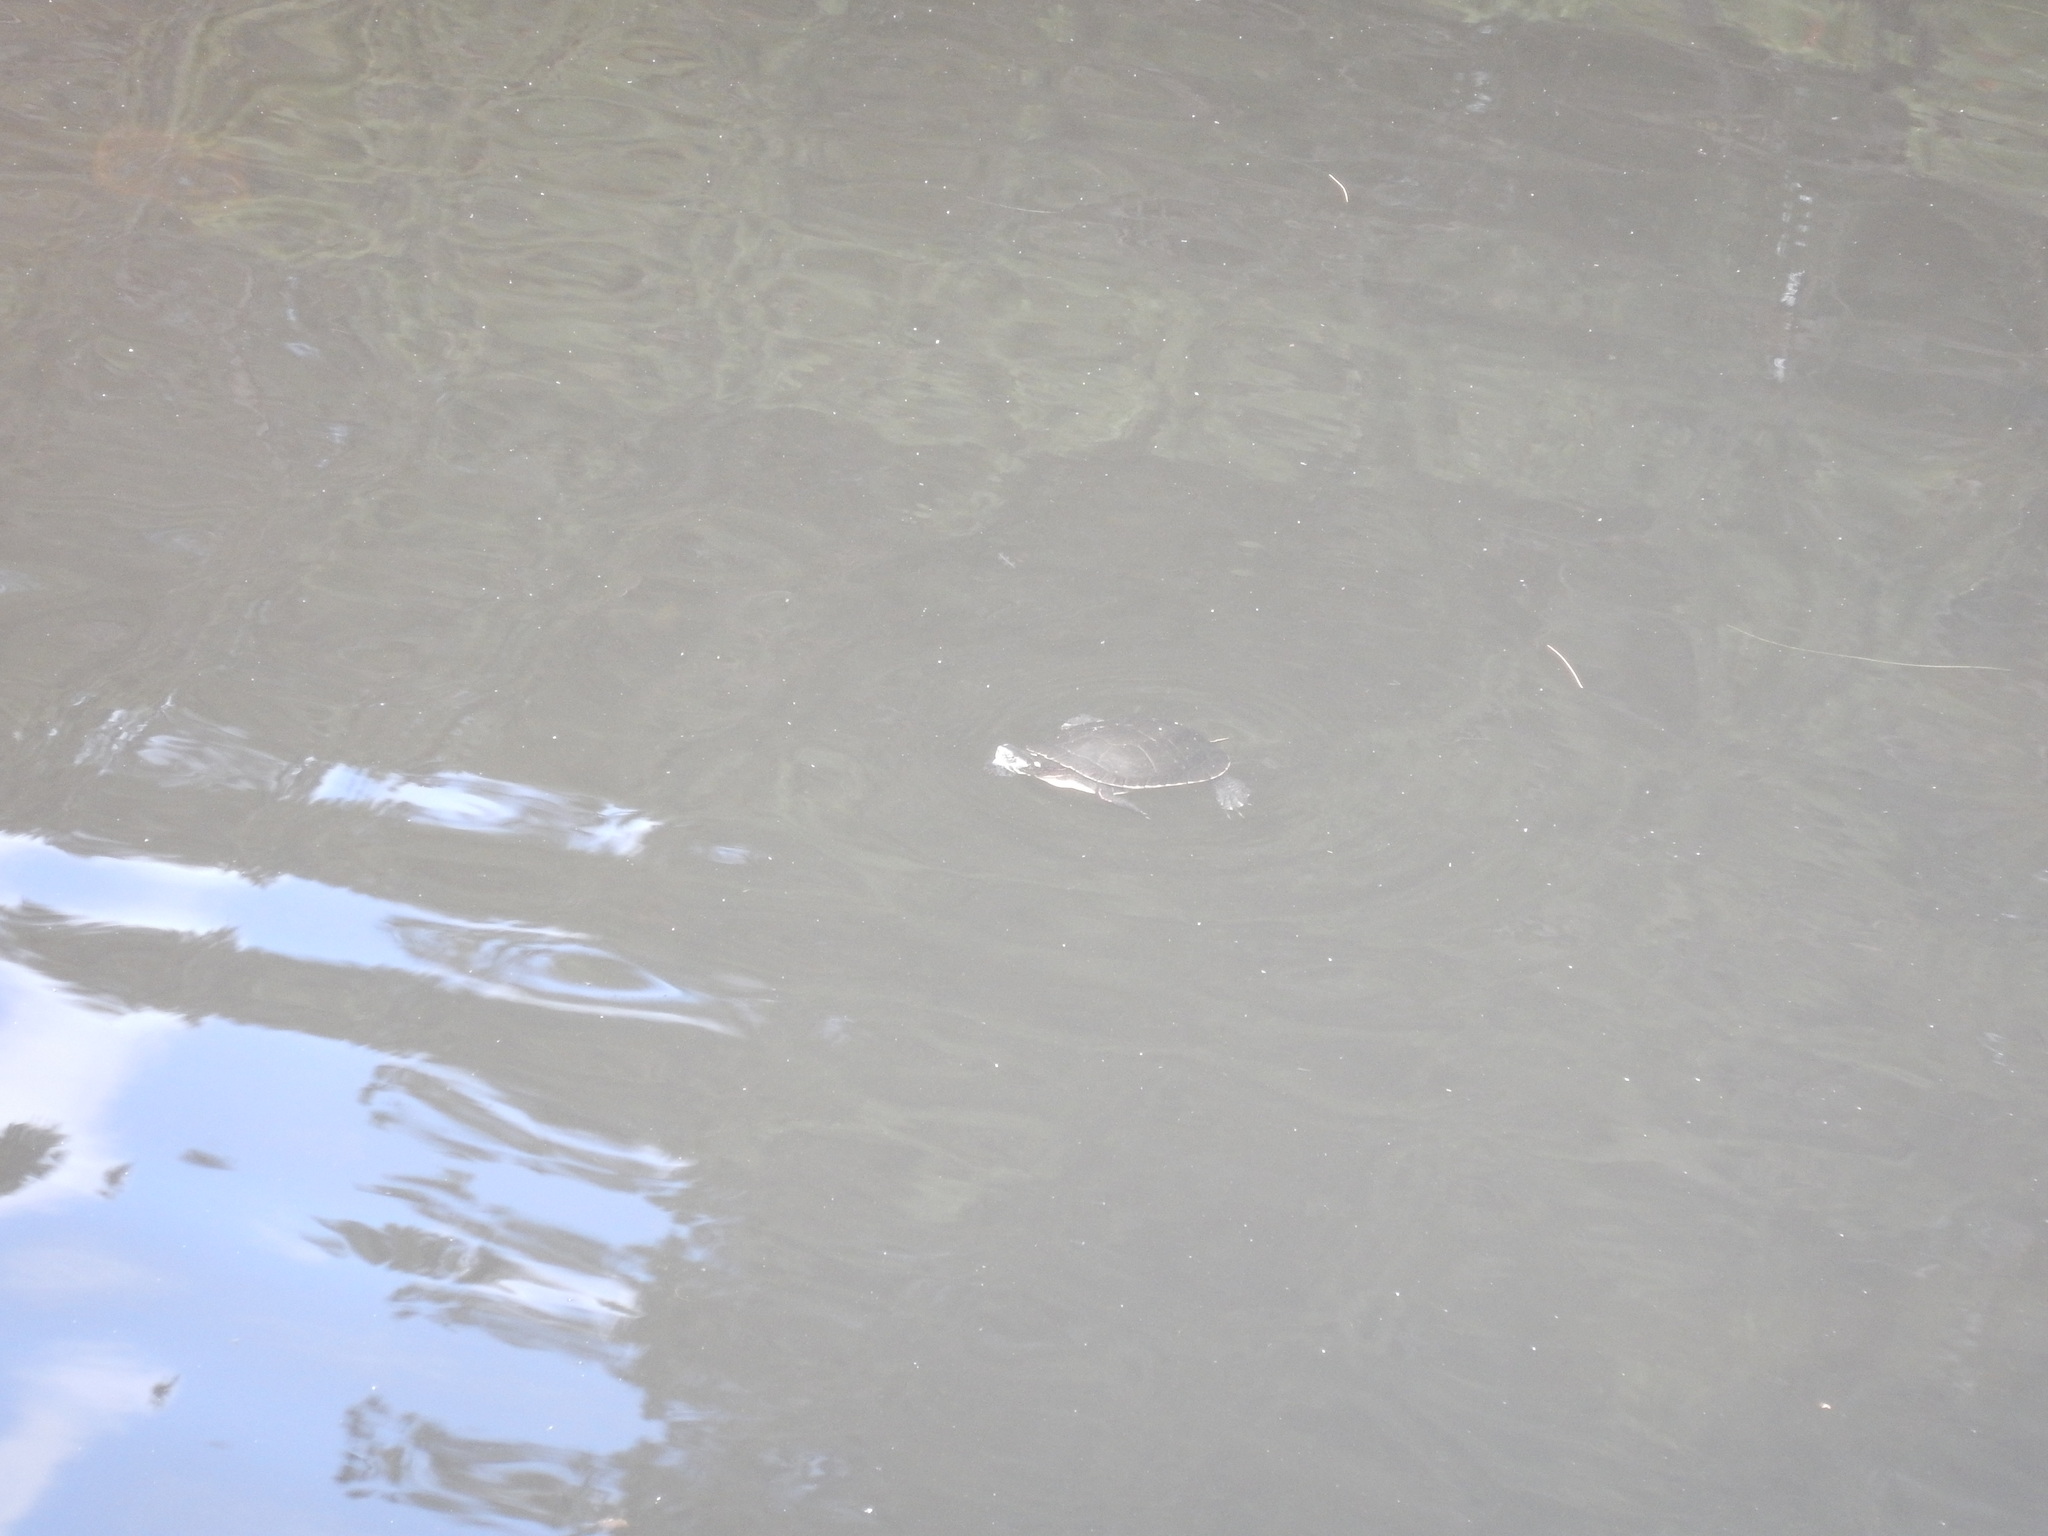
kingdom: Animalia
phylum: Chordata
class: Testudines
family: Emydidae
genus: Chrysemys
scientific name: Chrysemys picta
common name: Painted turtle
